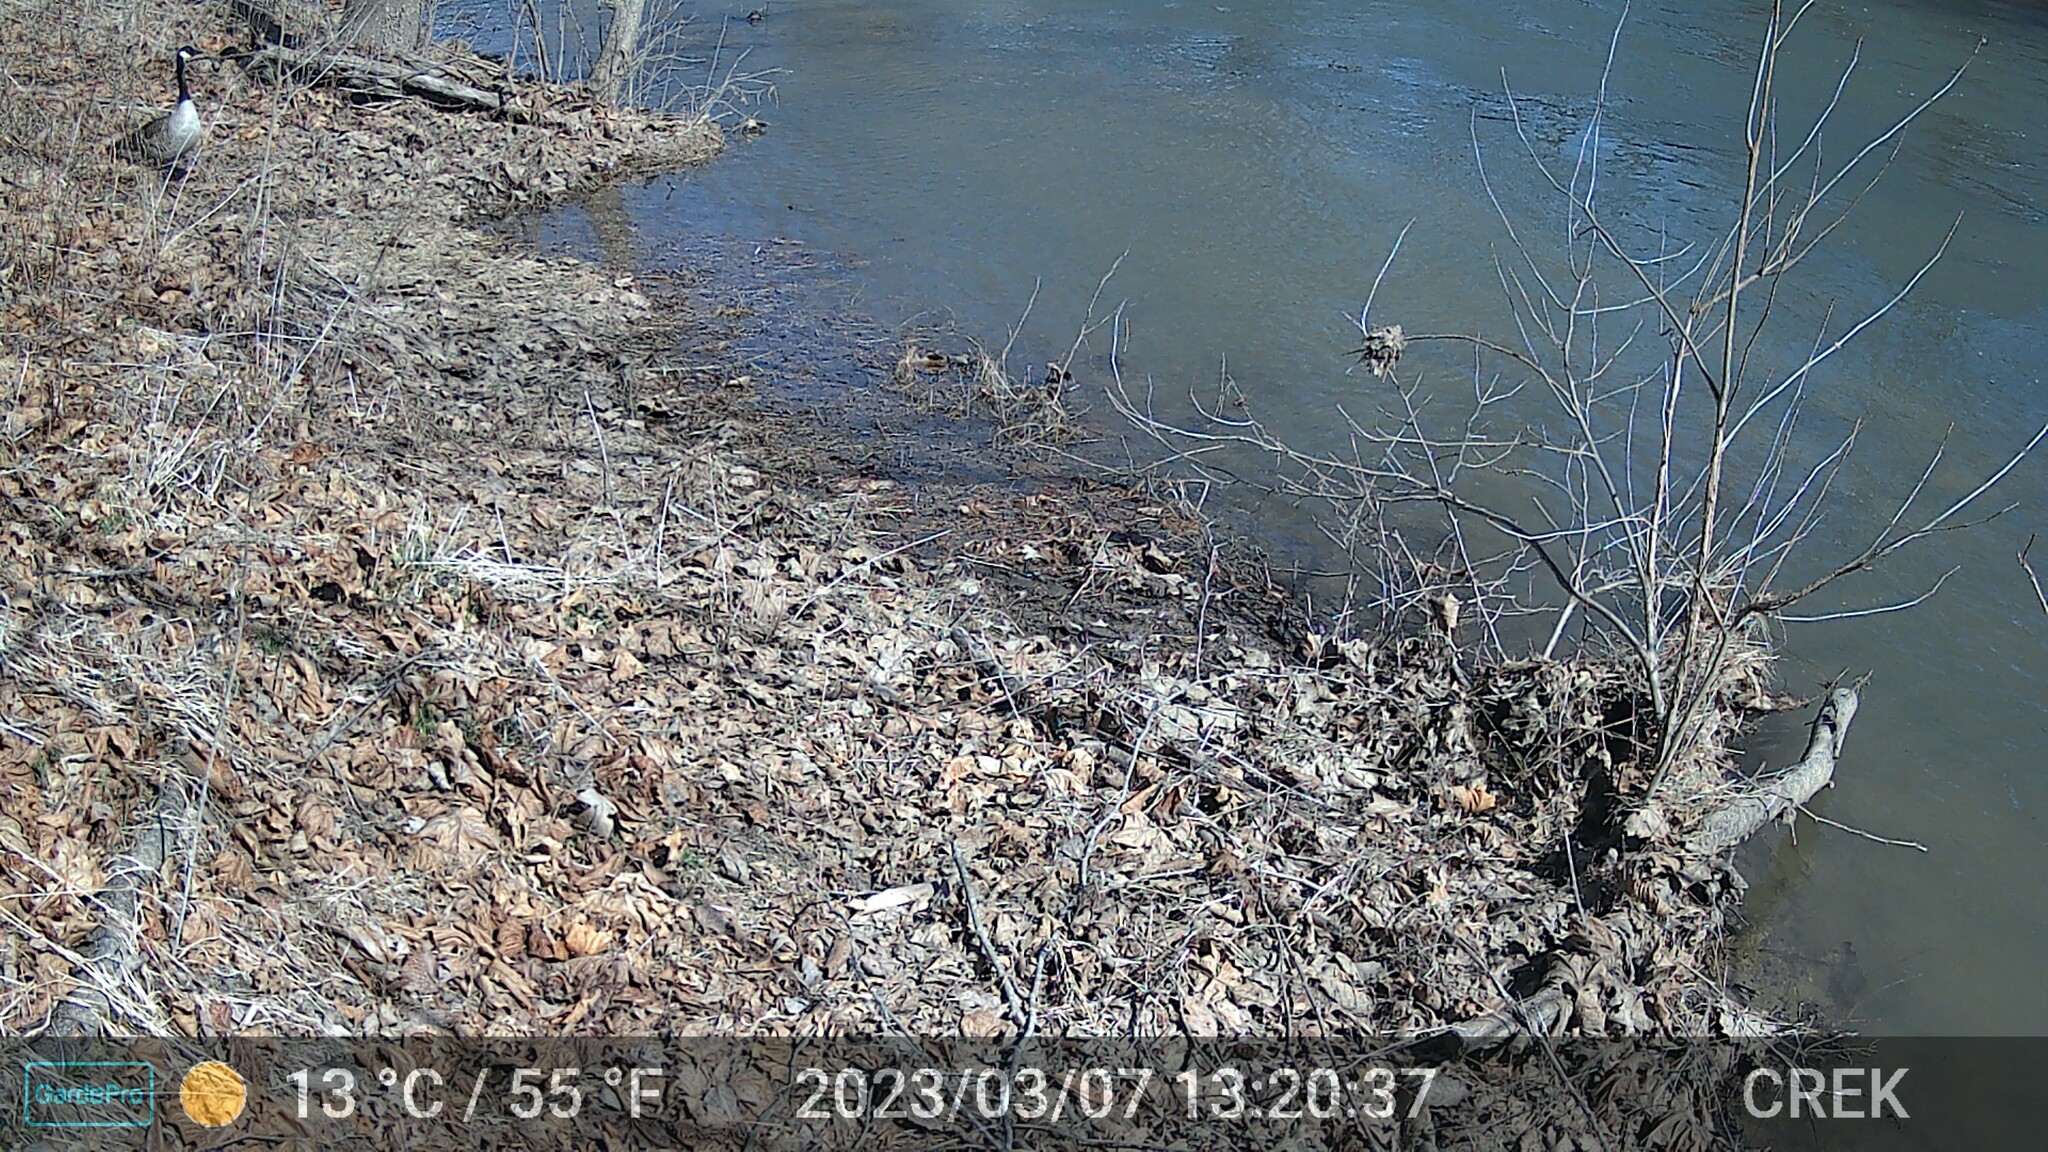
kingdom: Animalia
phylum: Chordata
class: Aves
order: Anseriformes
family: Anatidae
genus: Branta
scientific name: Branta canadensis
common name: Canada goose
